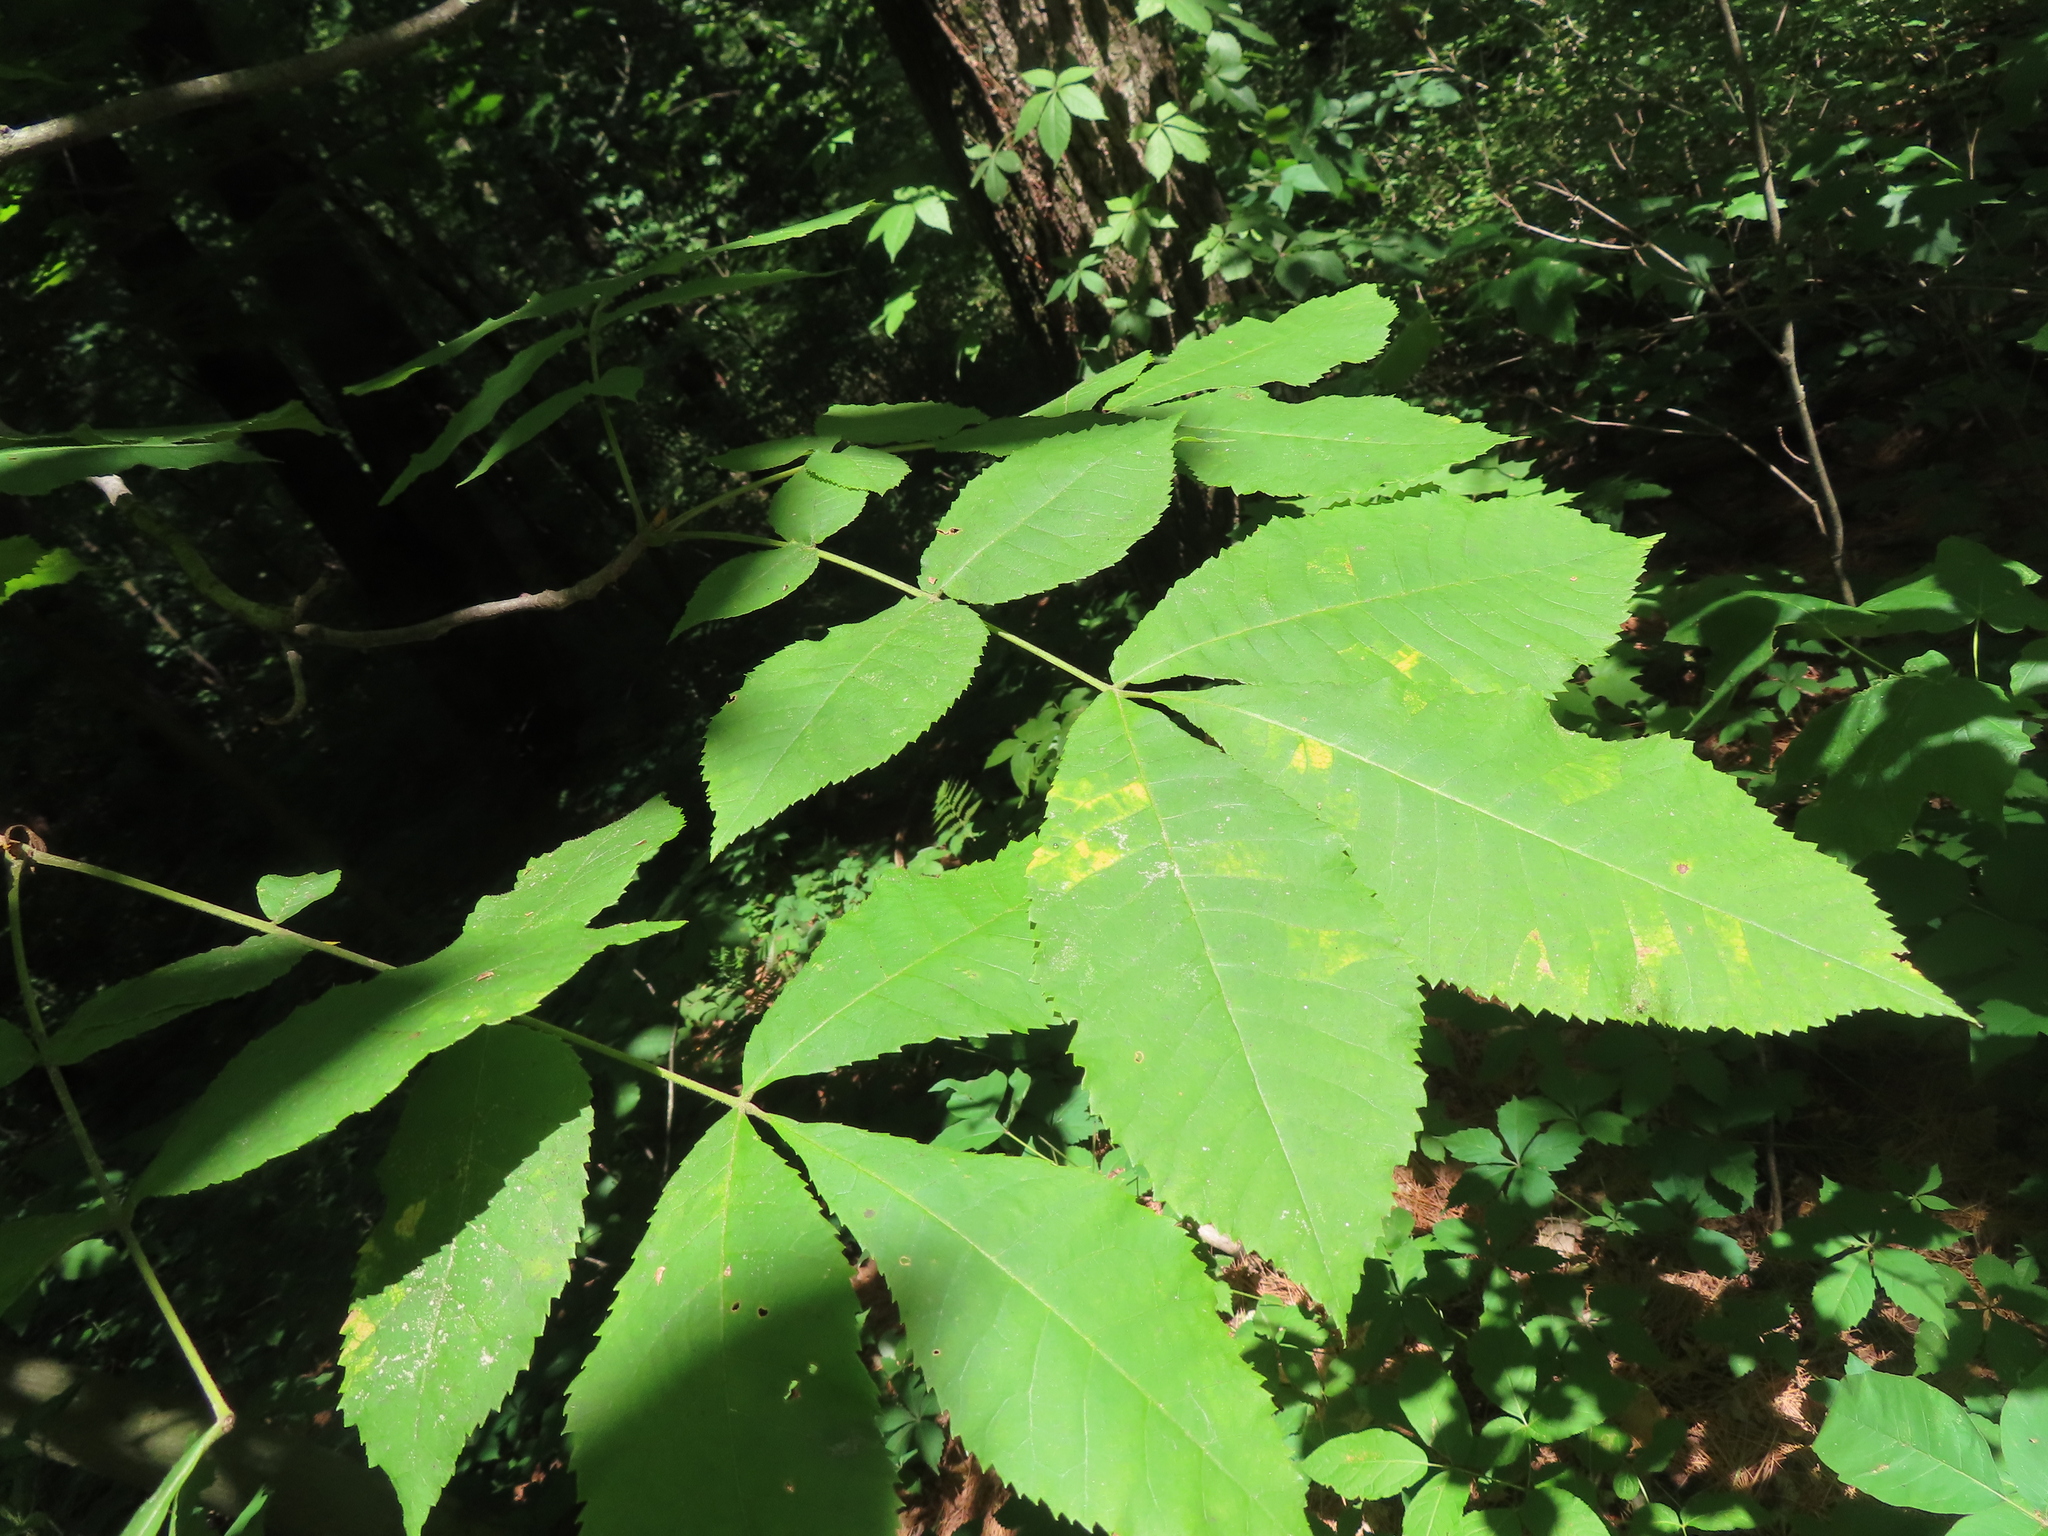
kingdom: Plantae
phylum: Tracheophyta
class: Magnoliopsida
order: Fagales
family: Juglandaceae
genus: Carya
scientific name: Carya cordiformis
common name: Bitternut hickory
